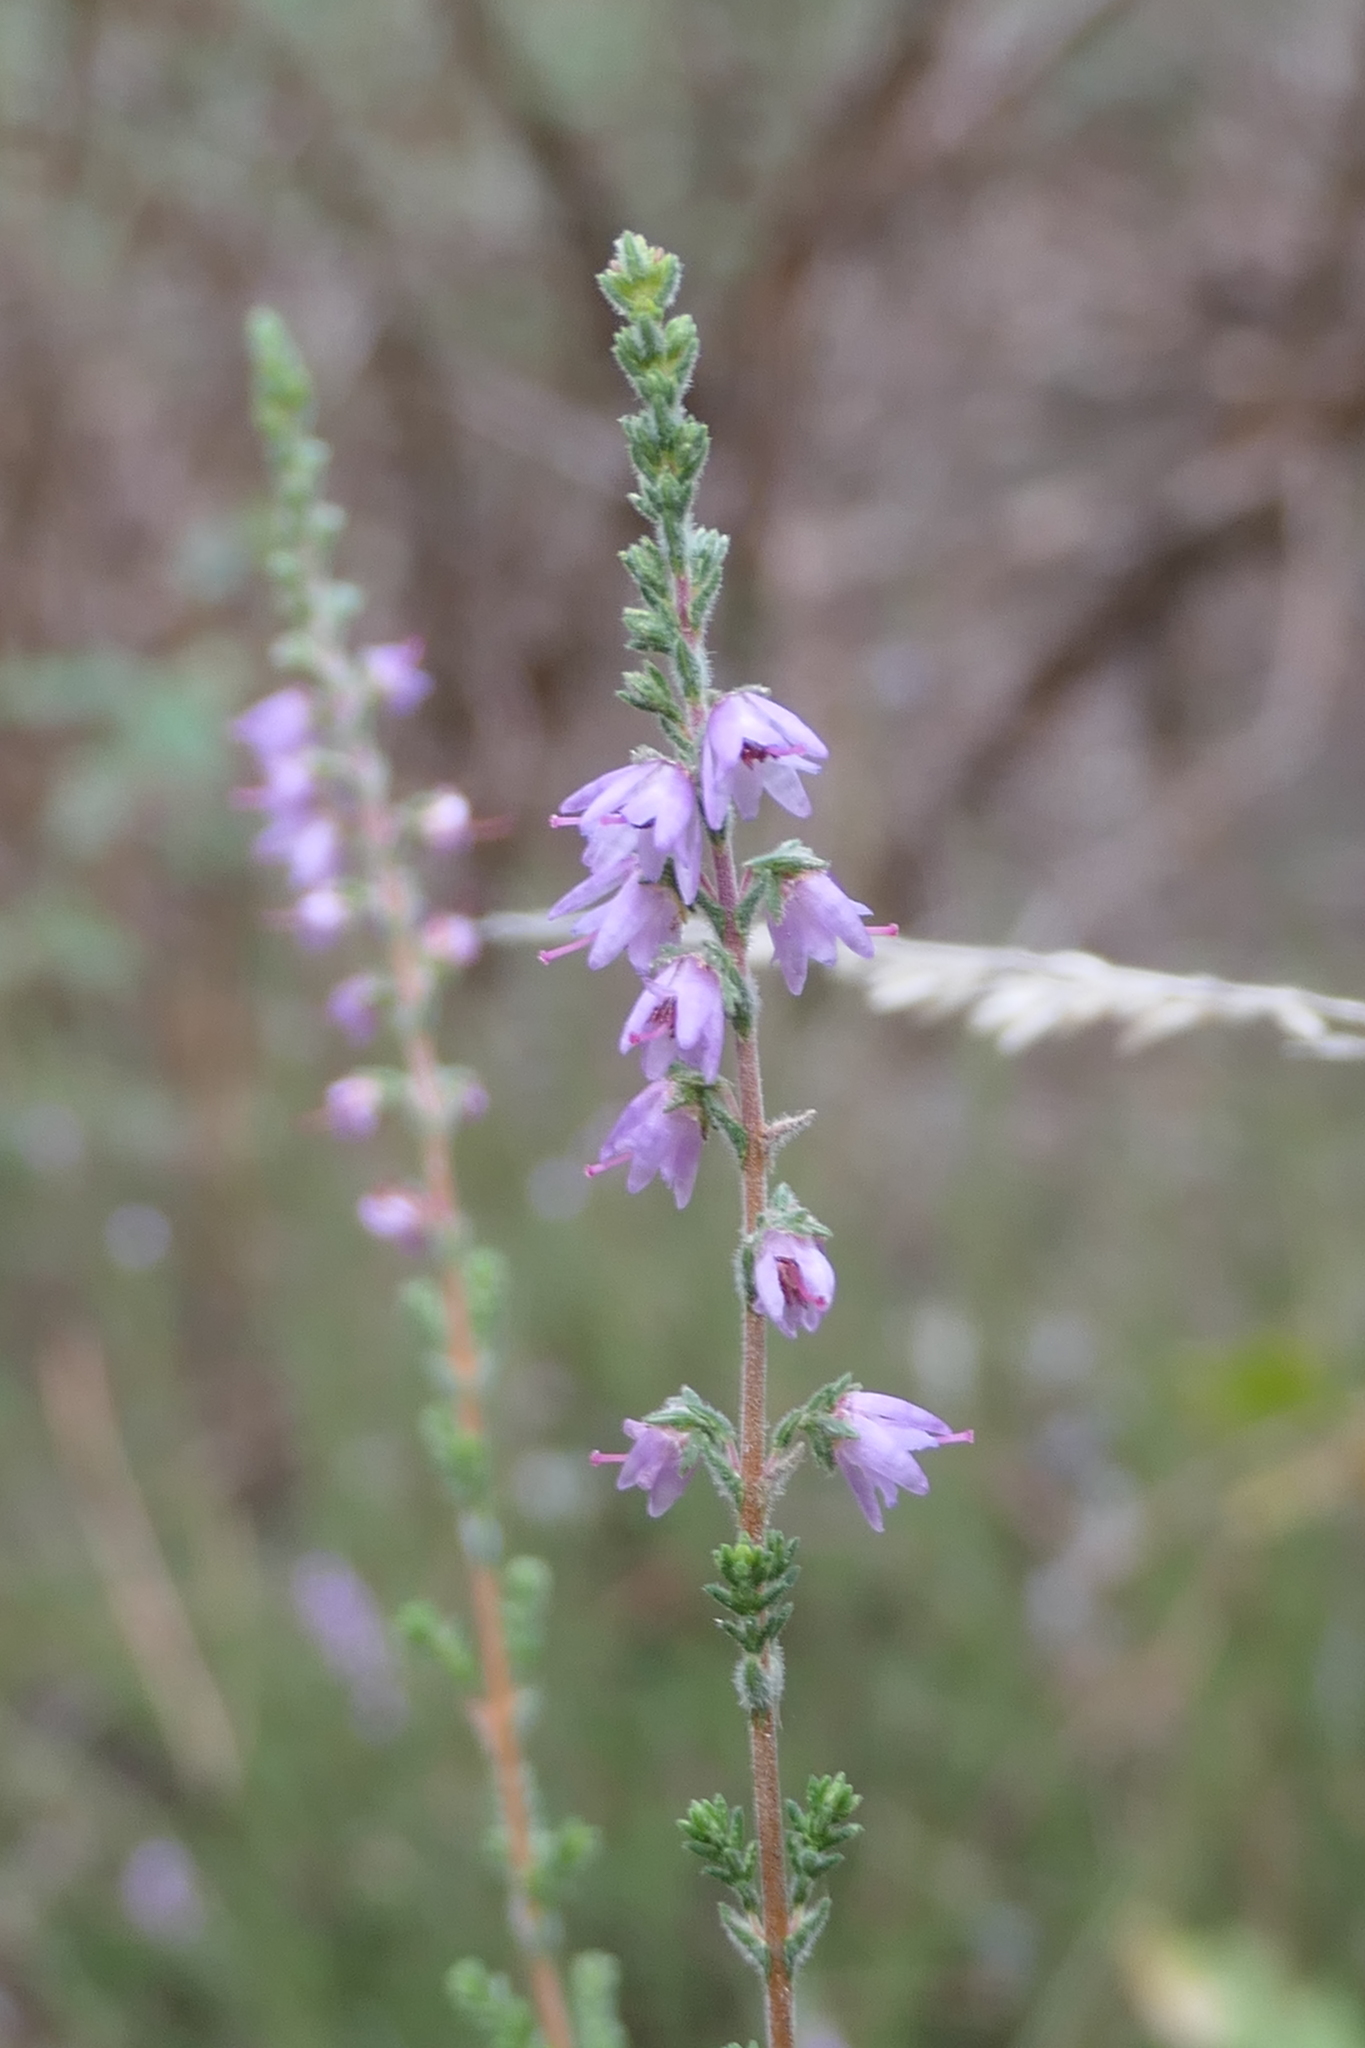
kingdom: Plantae
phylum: Tracheophyta
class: Magnoliopsida
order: Ericales
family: Ericaceae
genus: Calluna
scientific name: Calluna vulgaris
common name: Heather
